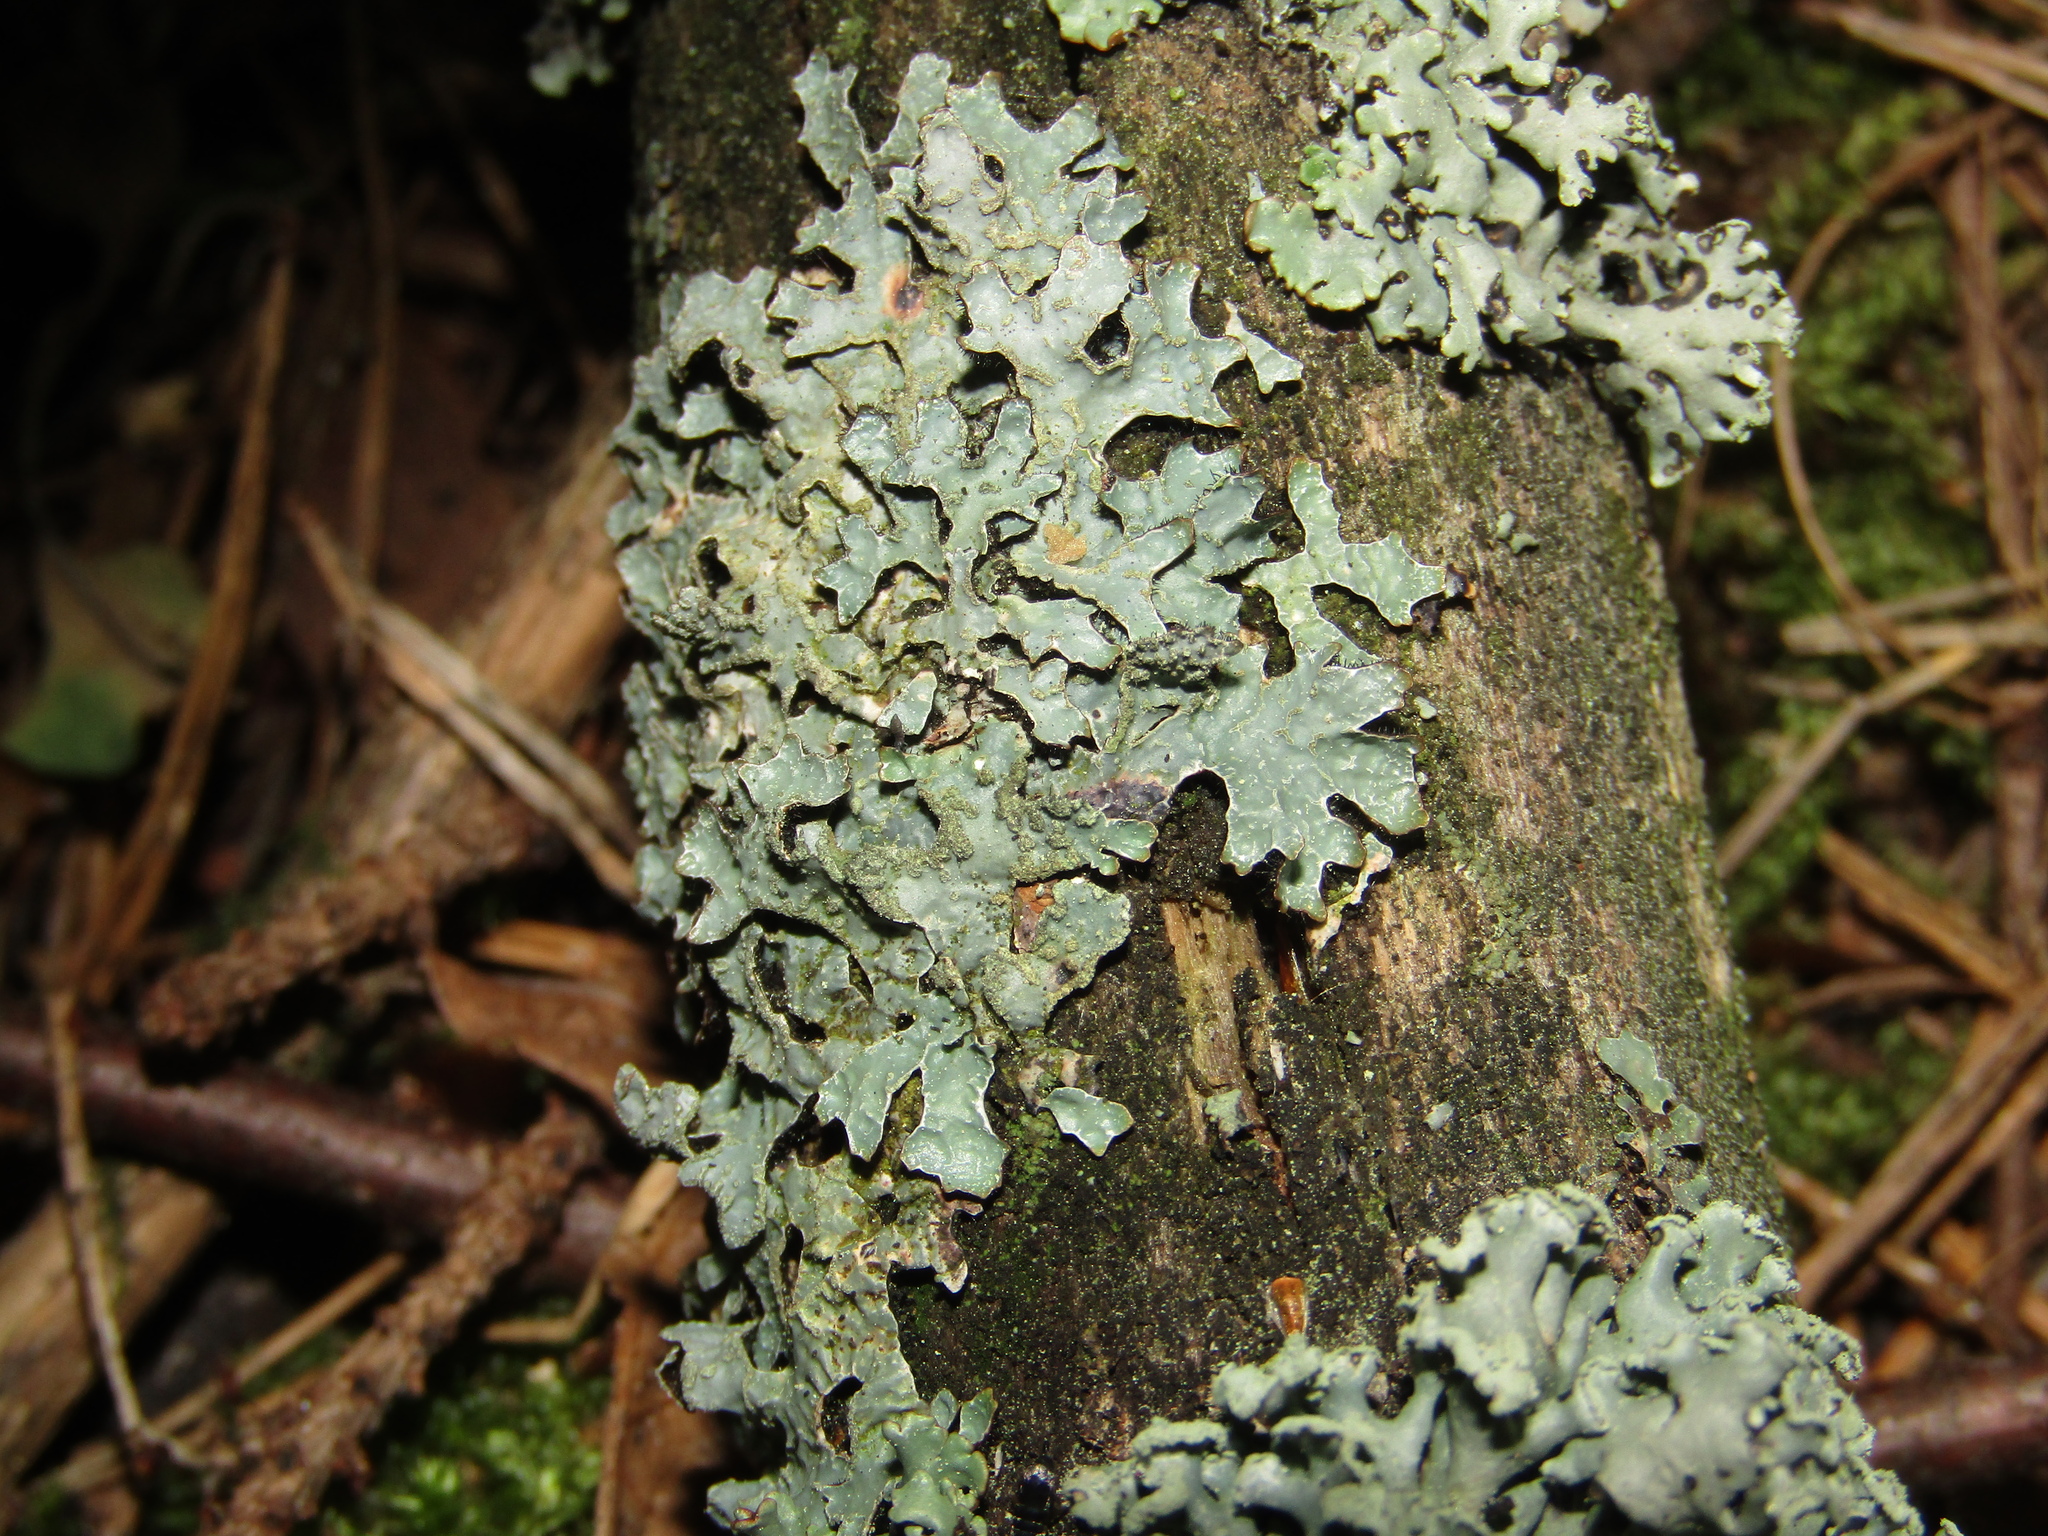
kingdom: Fungi
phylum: Ascomycota
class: Lecanoromycetes
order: Lecanorales
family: Parmeliaceae
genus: Parmelia
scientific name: Parmelia sulcata
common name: Netted shield lichen
